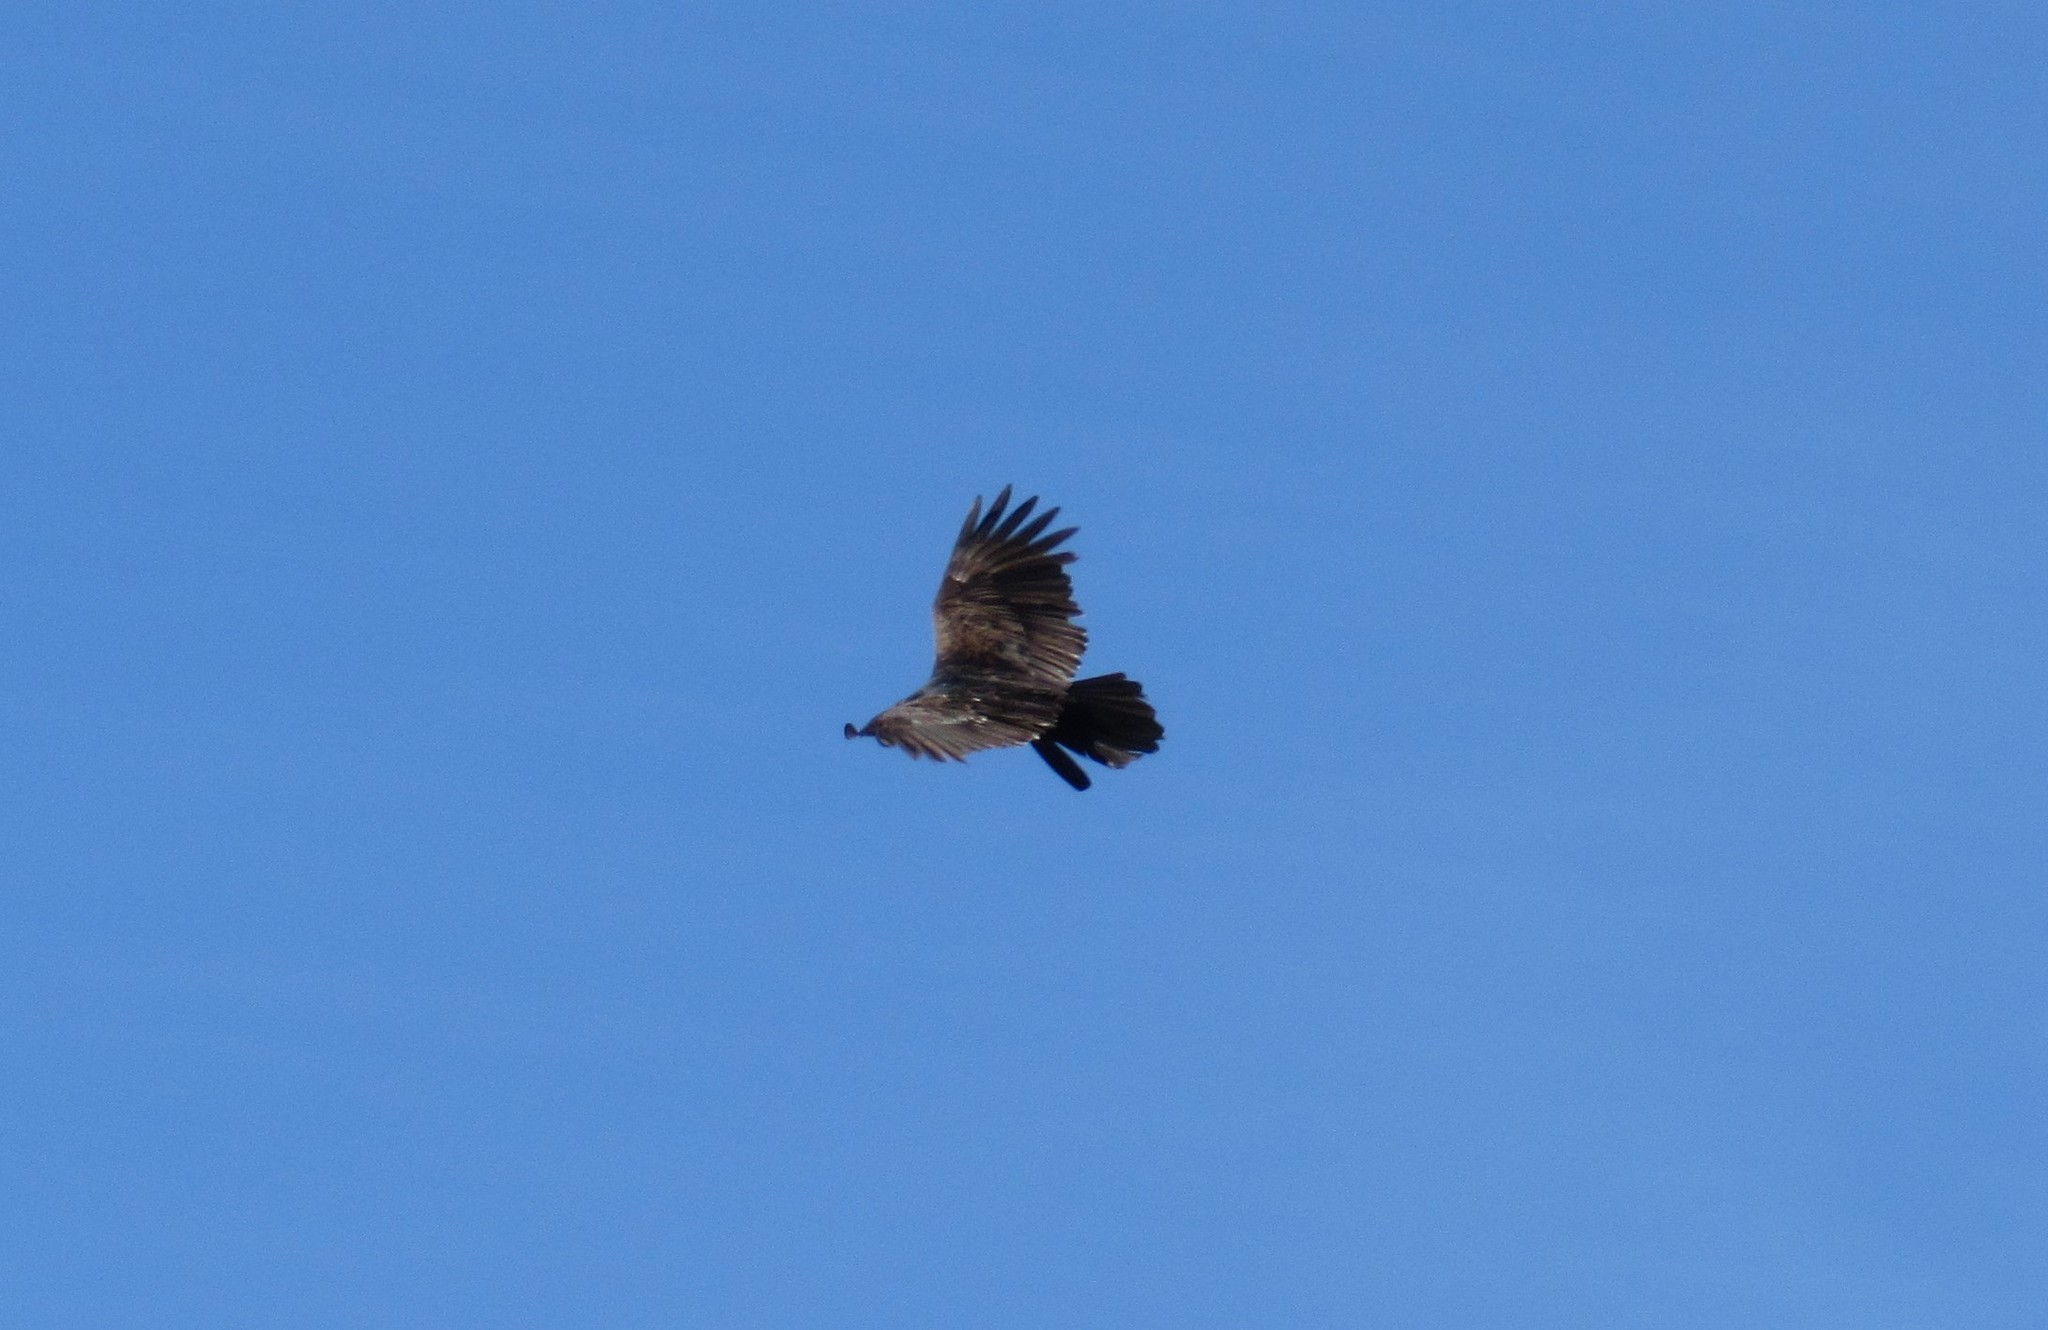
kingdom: Animalia
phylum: Chordata
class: Aves
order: Accipitriformes
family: Cathartidae
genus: Cathartes
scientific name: Cathartes aura
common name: Turkey vulture
